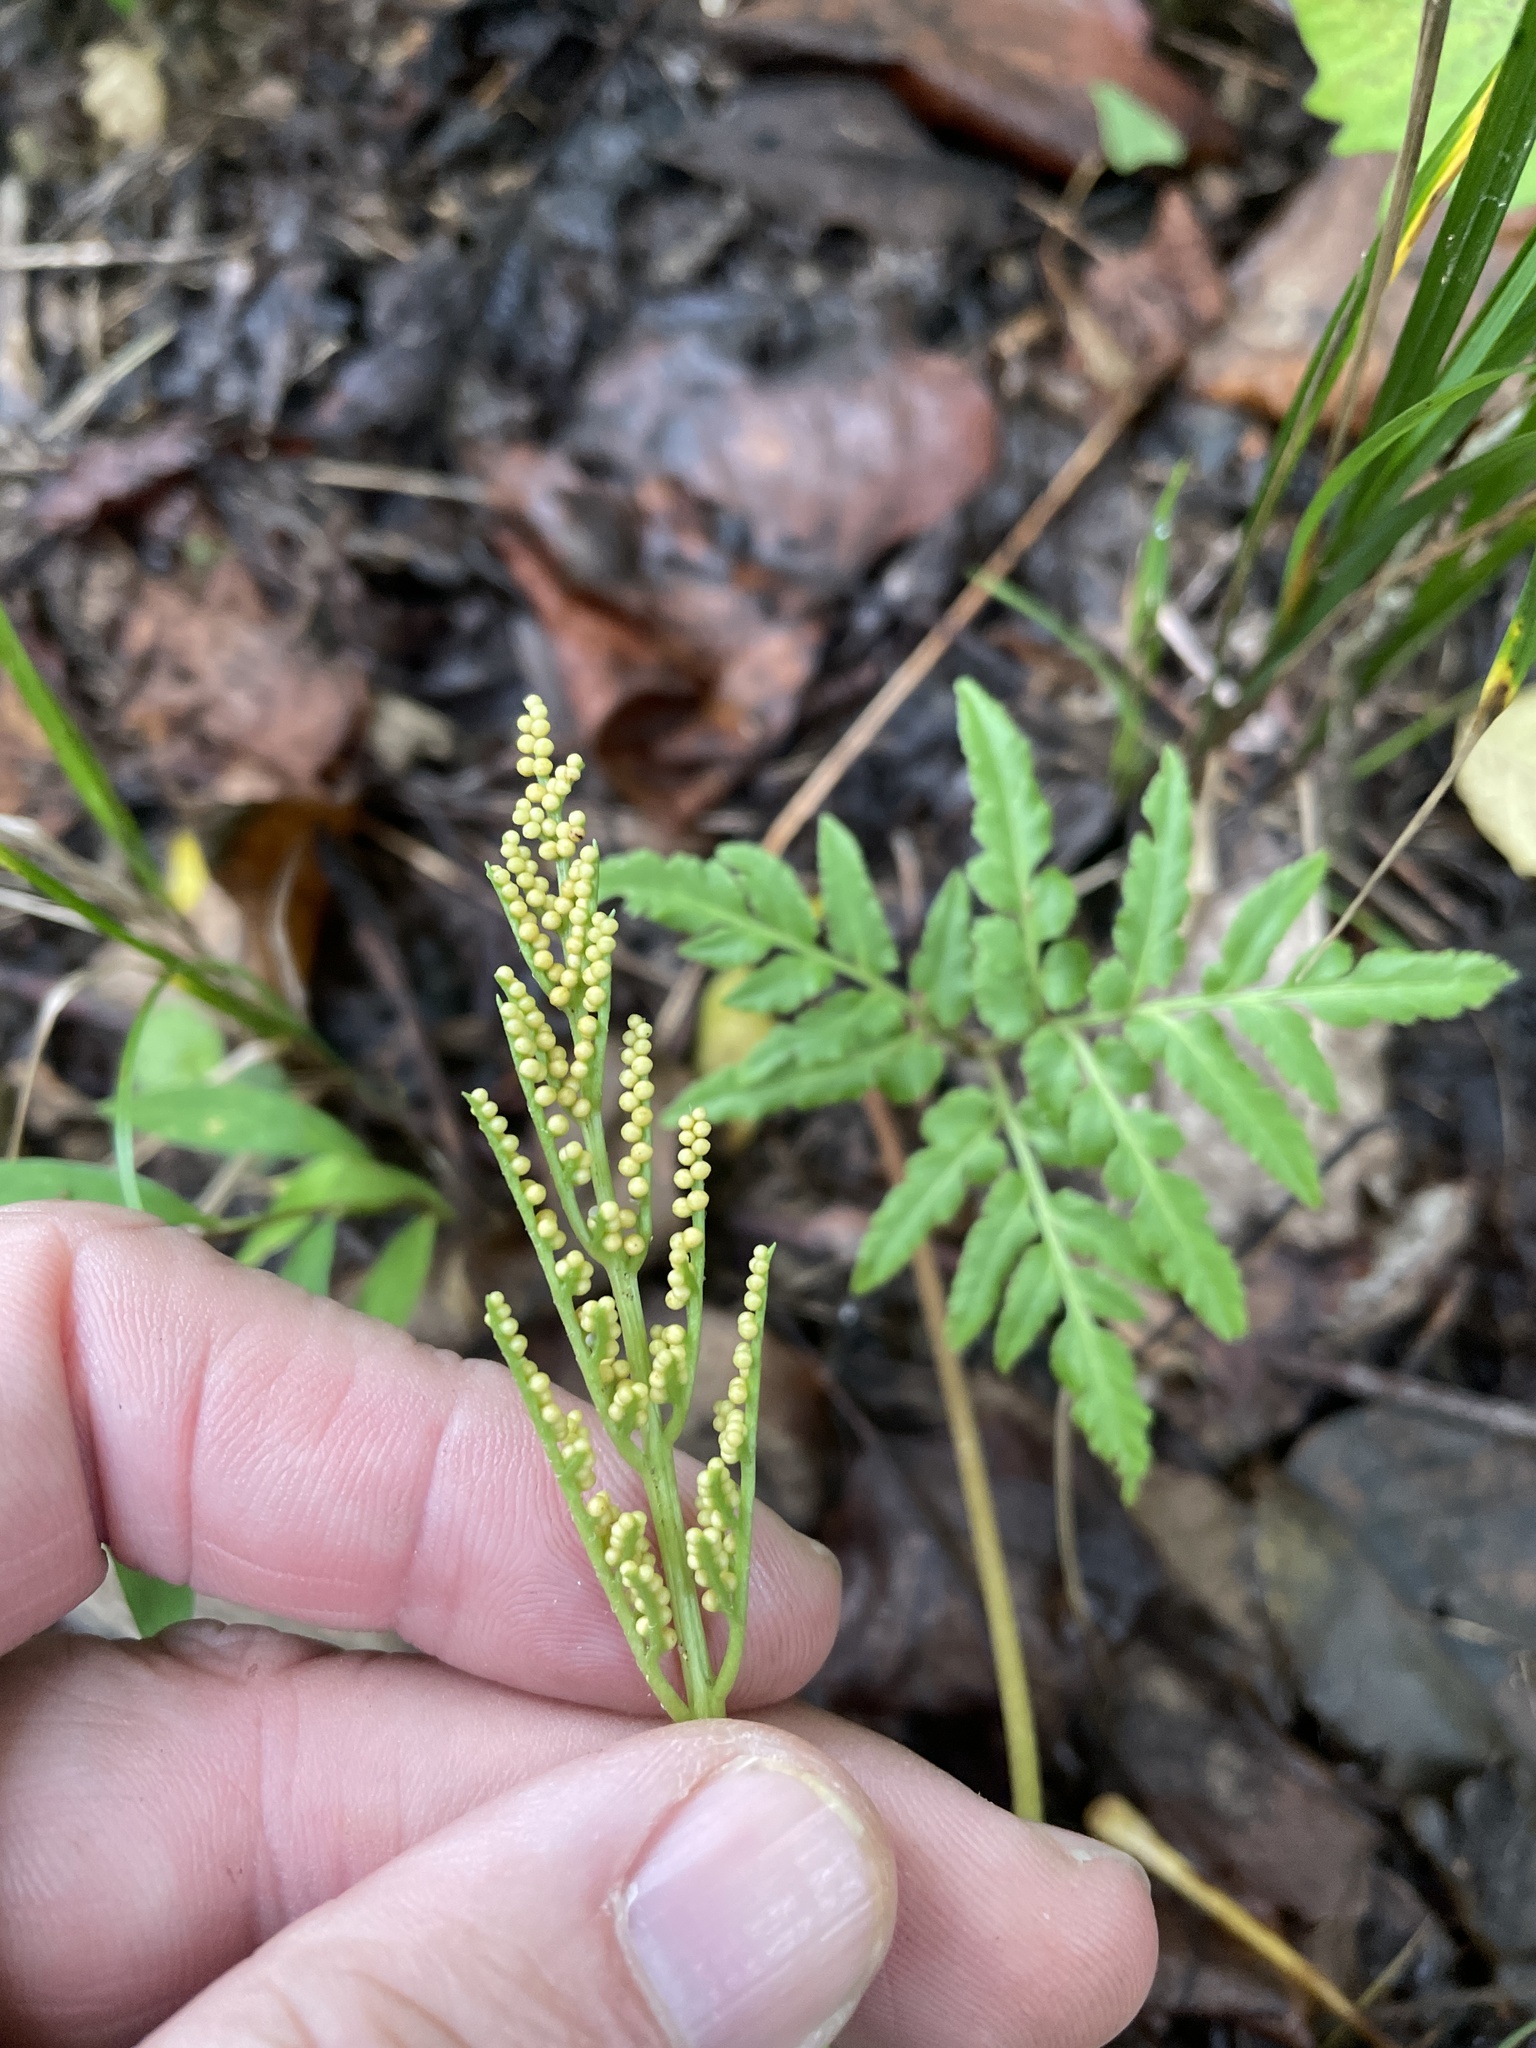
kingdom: Plantae
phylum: Tracheophyta
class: Polypodiopsida
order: Ophioglossales
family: Ophioglossaceae
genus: Sceptridium
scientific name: Sceptridium dissectum
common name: Cut-leaved grapefern
